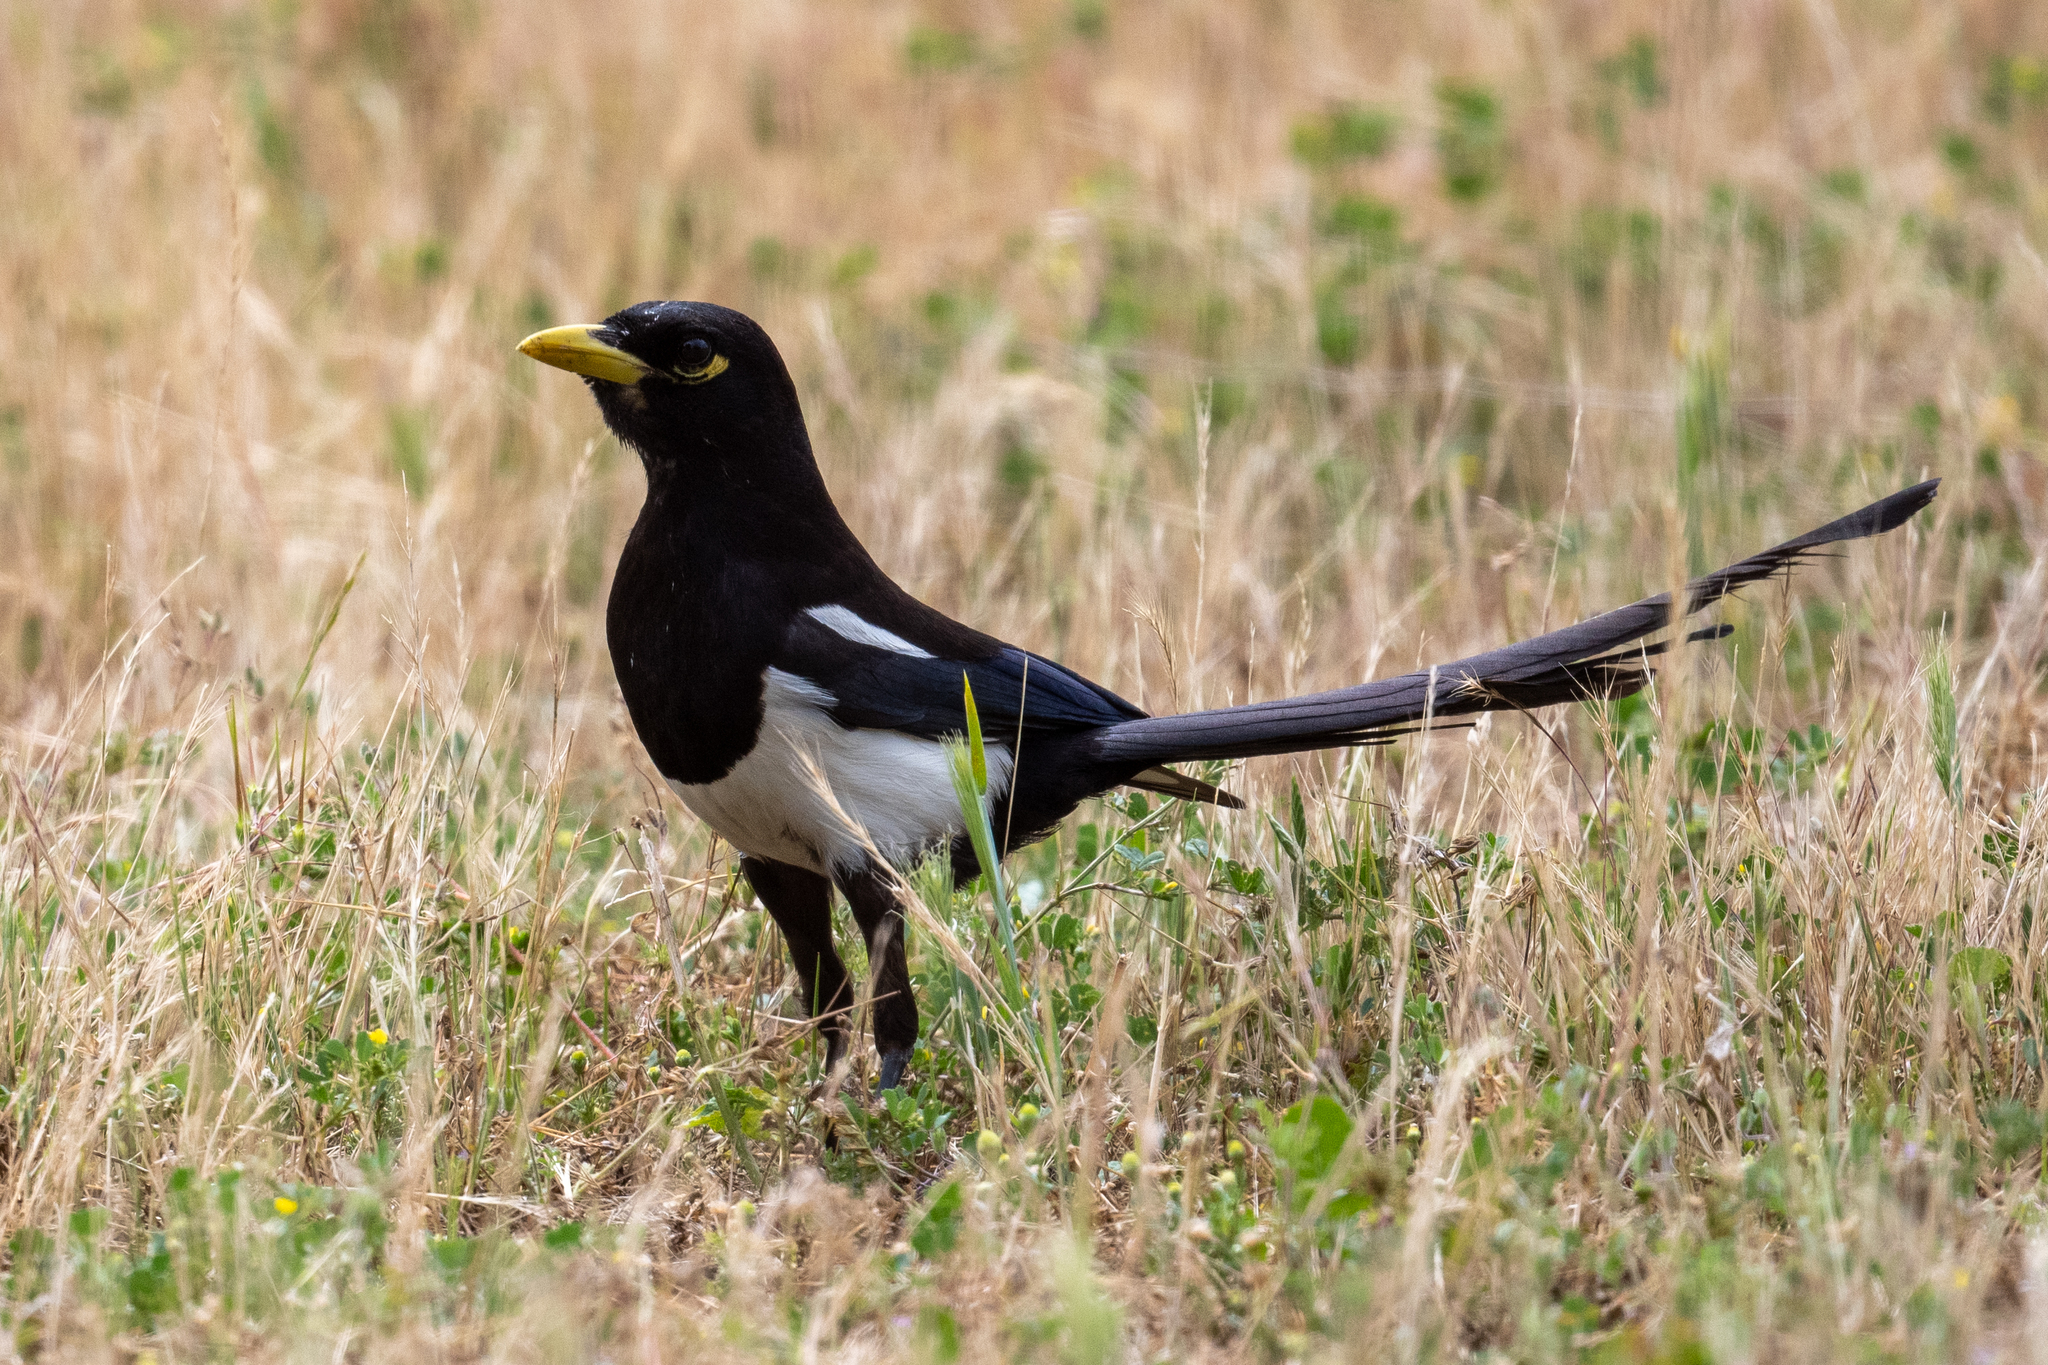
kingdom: Animalia
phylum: Chordata
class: Aves
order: Passeriformes
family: Corvidae
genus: Pica
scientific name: Pica nuttalli
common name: Yellow-billed magpie
